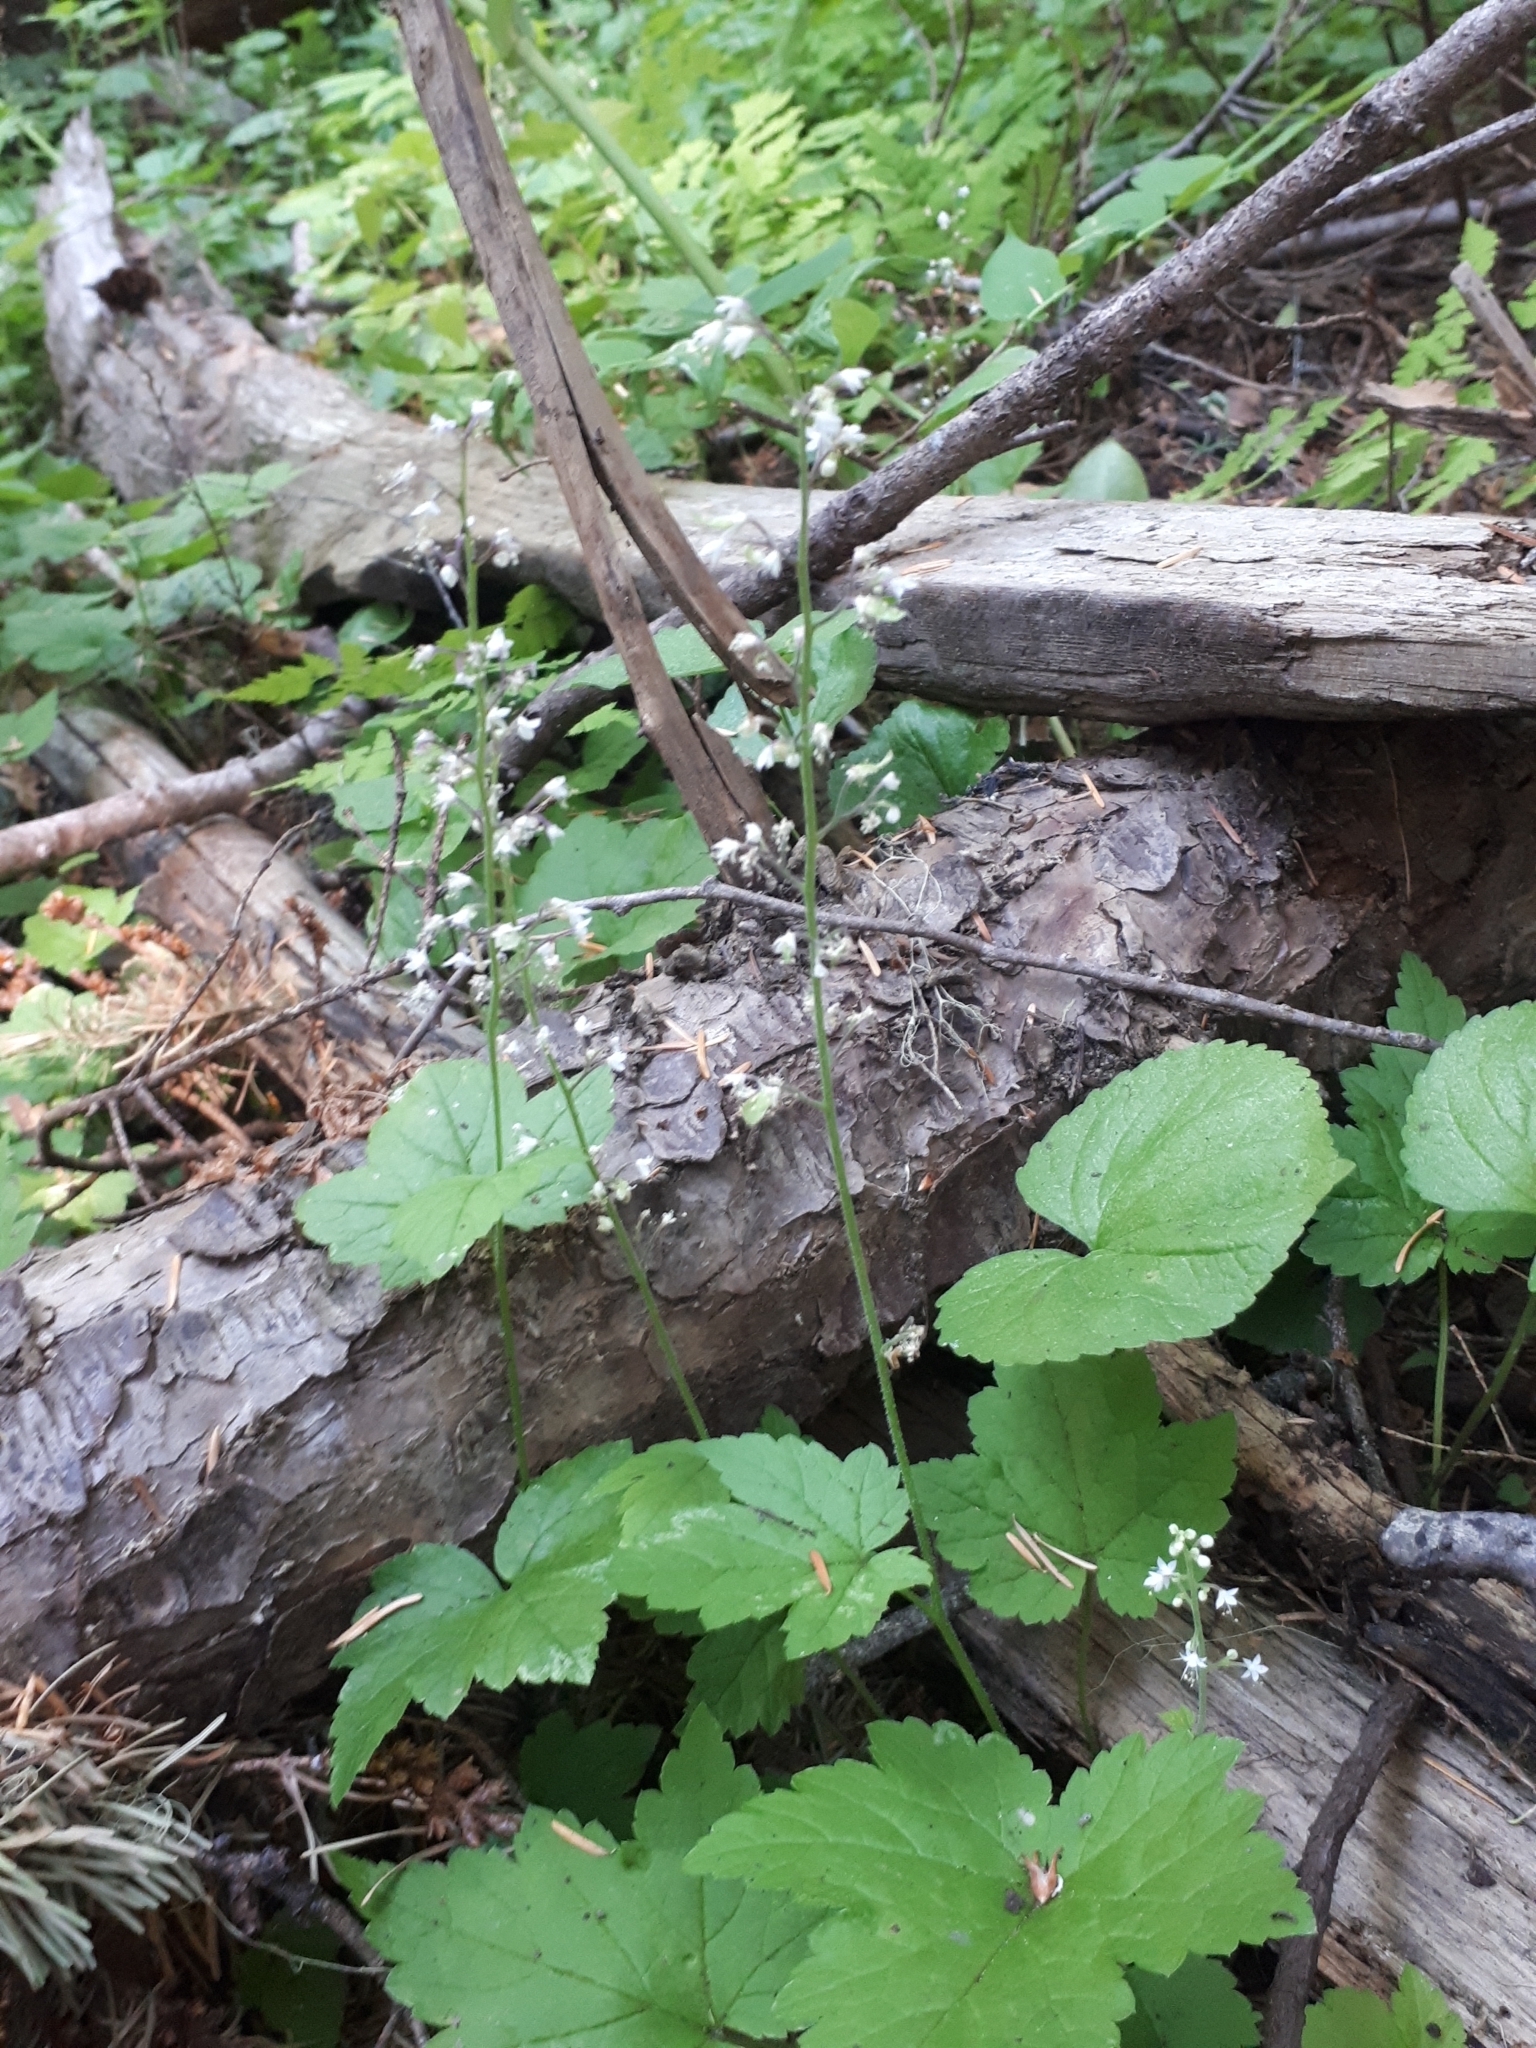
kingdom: Plantae
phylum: Tracheophyta
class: Magnoliopsida
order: Saxifragales
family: Saxifragaceae
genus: Tiarella
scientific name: Tiarella trifoliata
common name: Sugar-scoop
